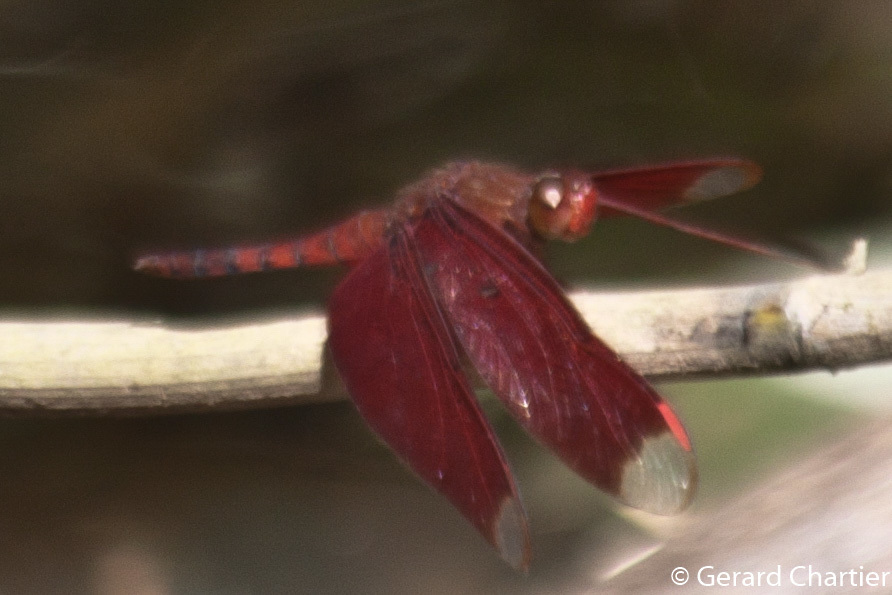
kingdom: Animalia
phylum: Arthropoda
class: Insecta
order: Odonata
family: Libellulidae
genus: Neurothemis
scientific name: Neurothemis fulvia
